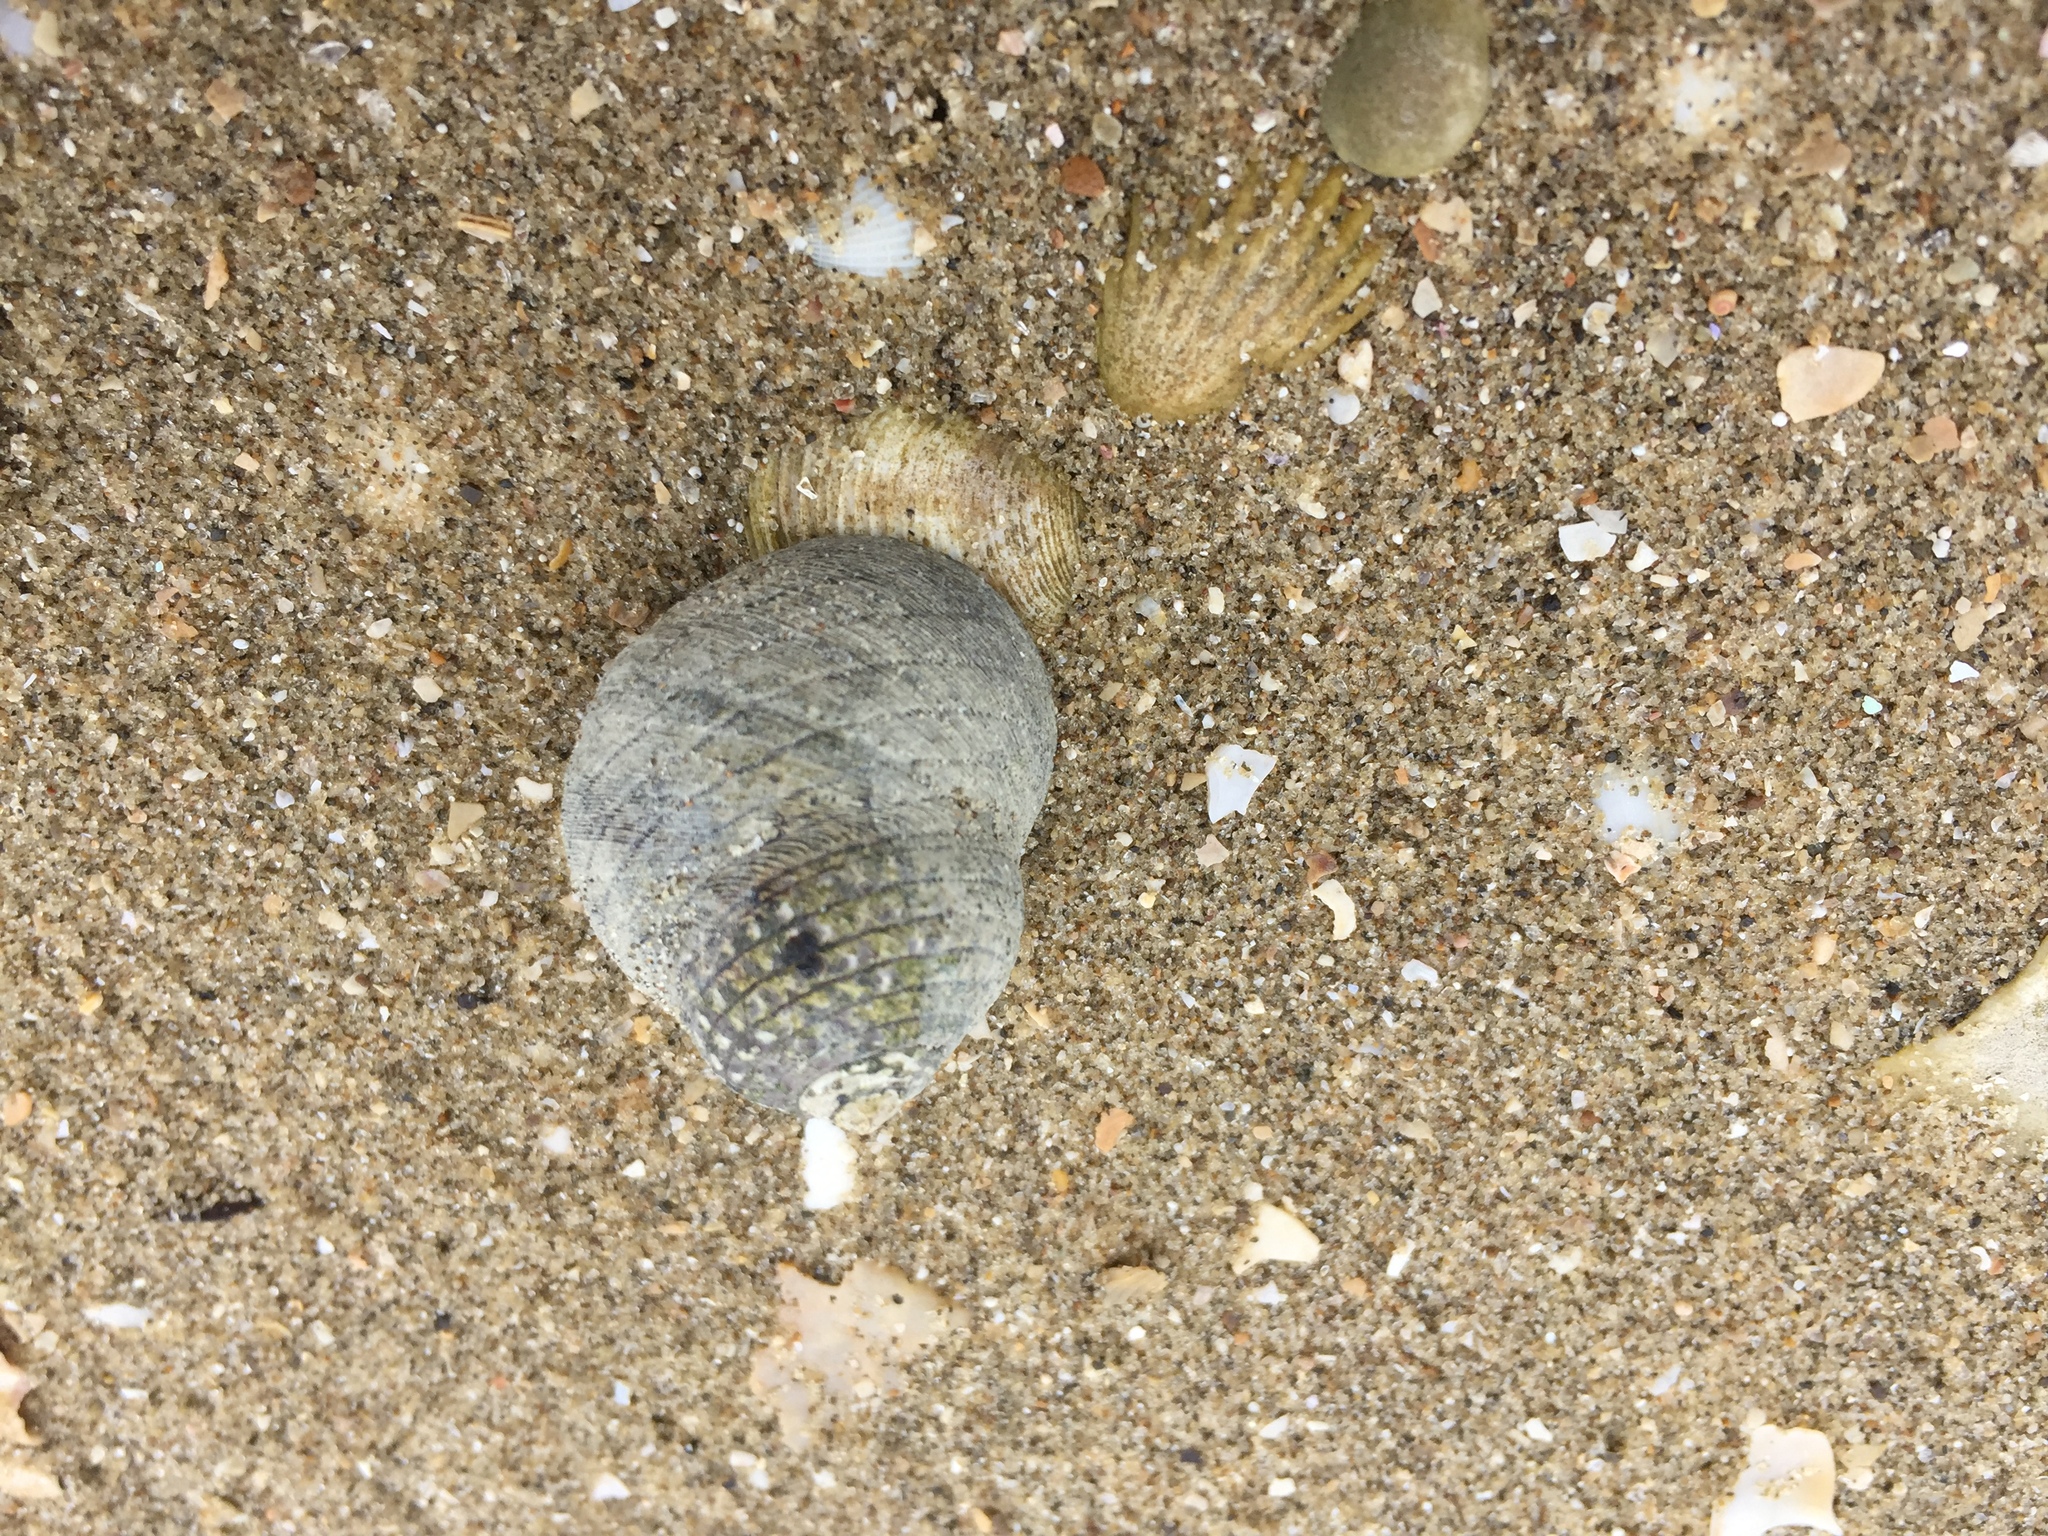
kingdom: Animalia
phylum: Mollusca
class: Gastropoda
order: Trochida
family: Trochidae
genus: Diloma
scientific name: Diloma aethiops
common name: Scorched monodont
